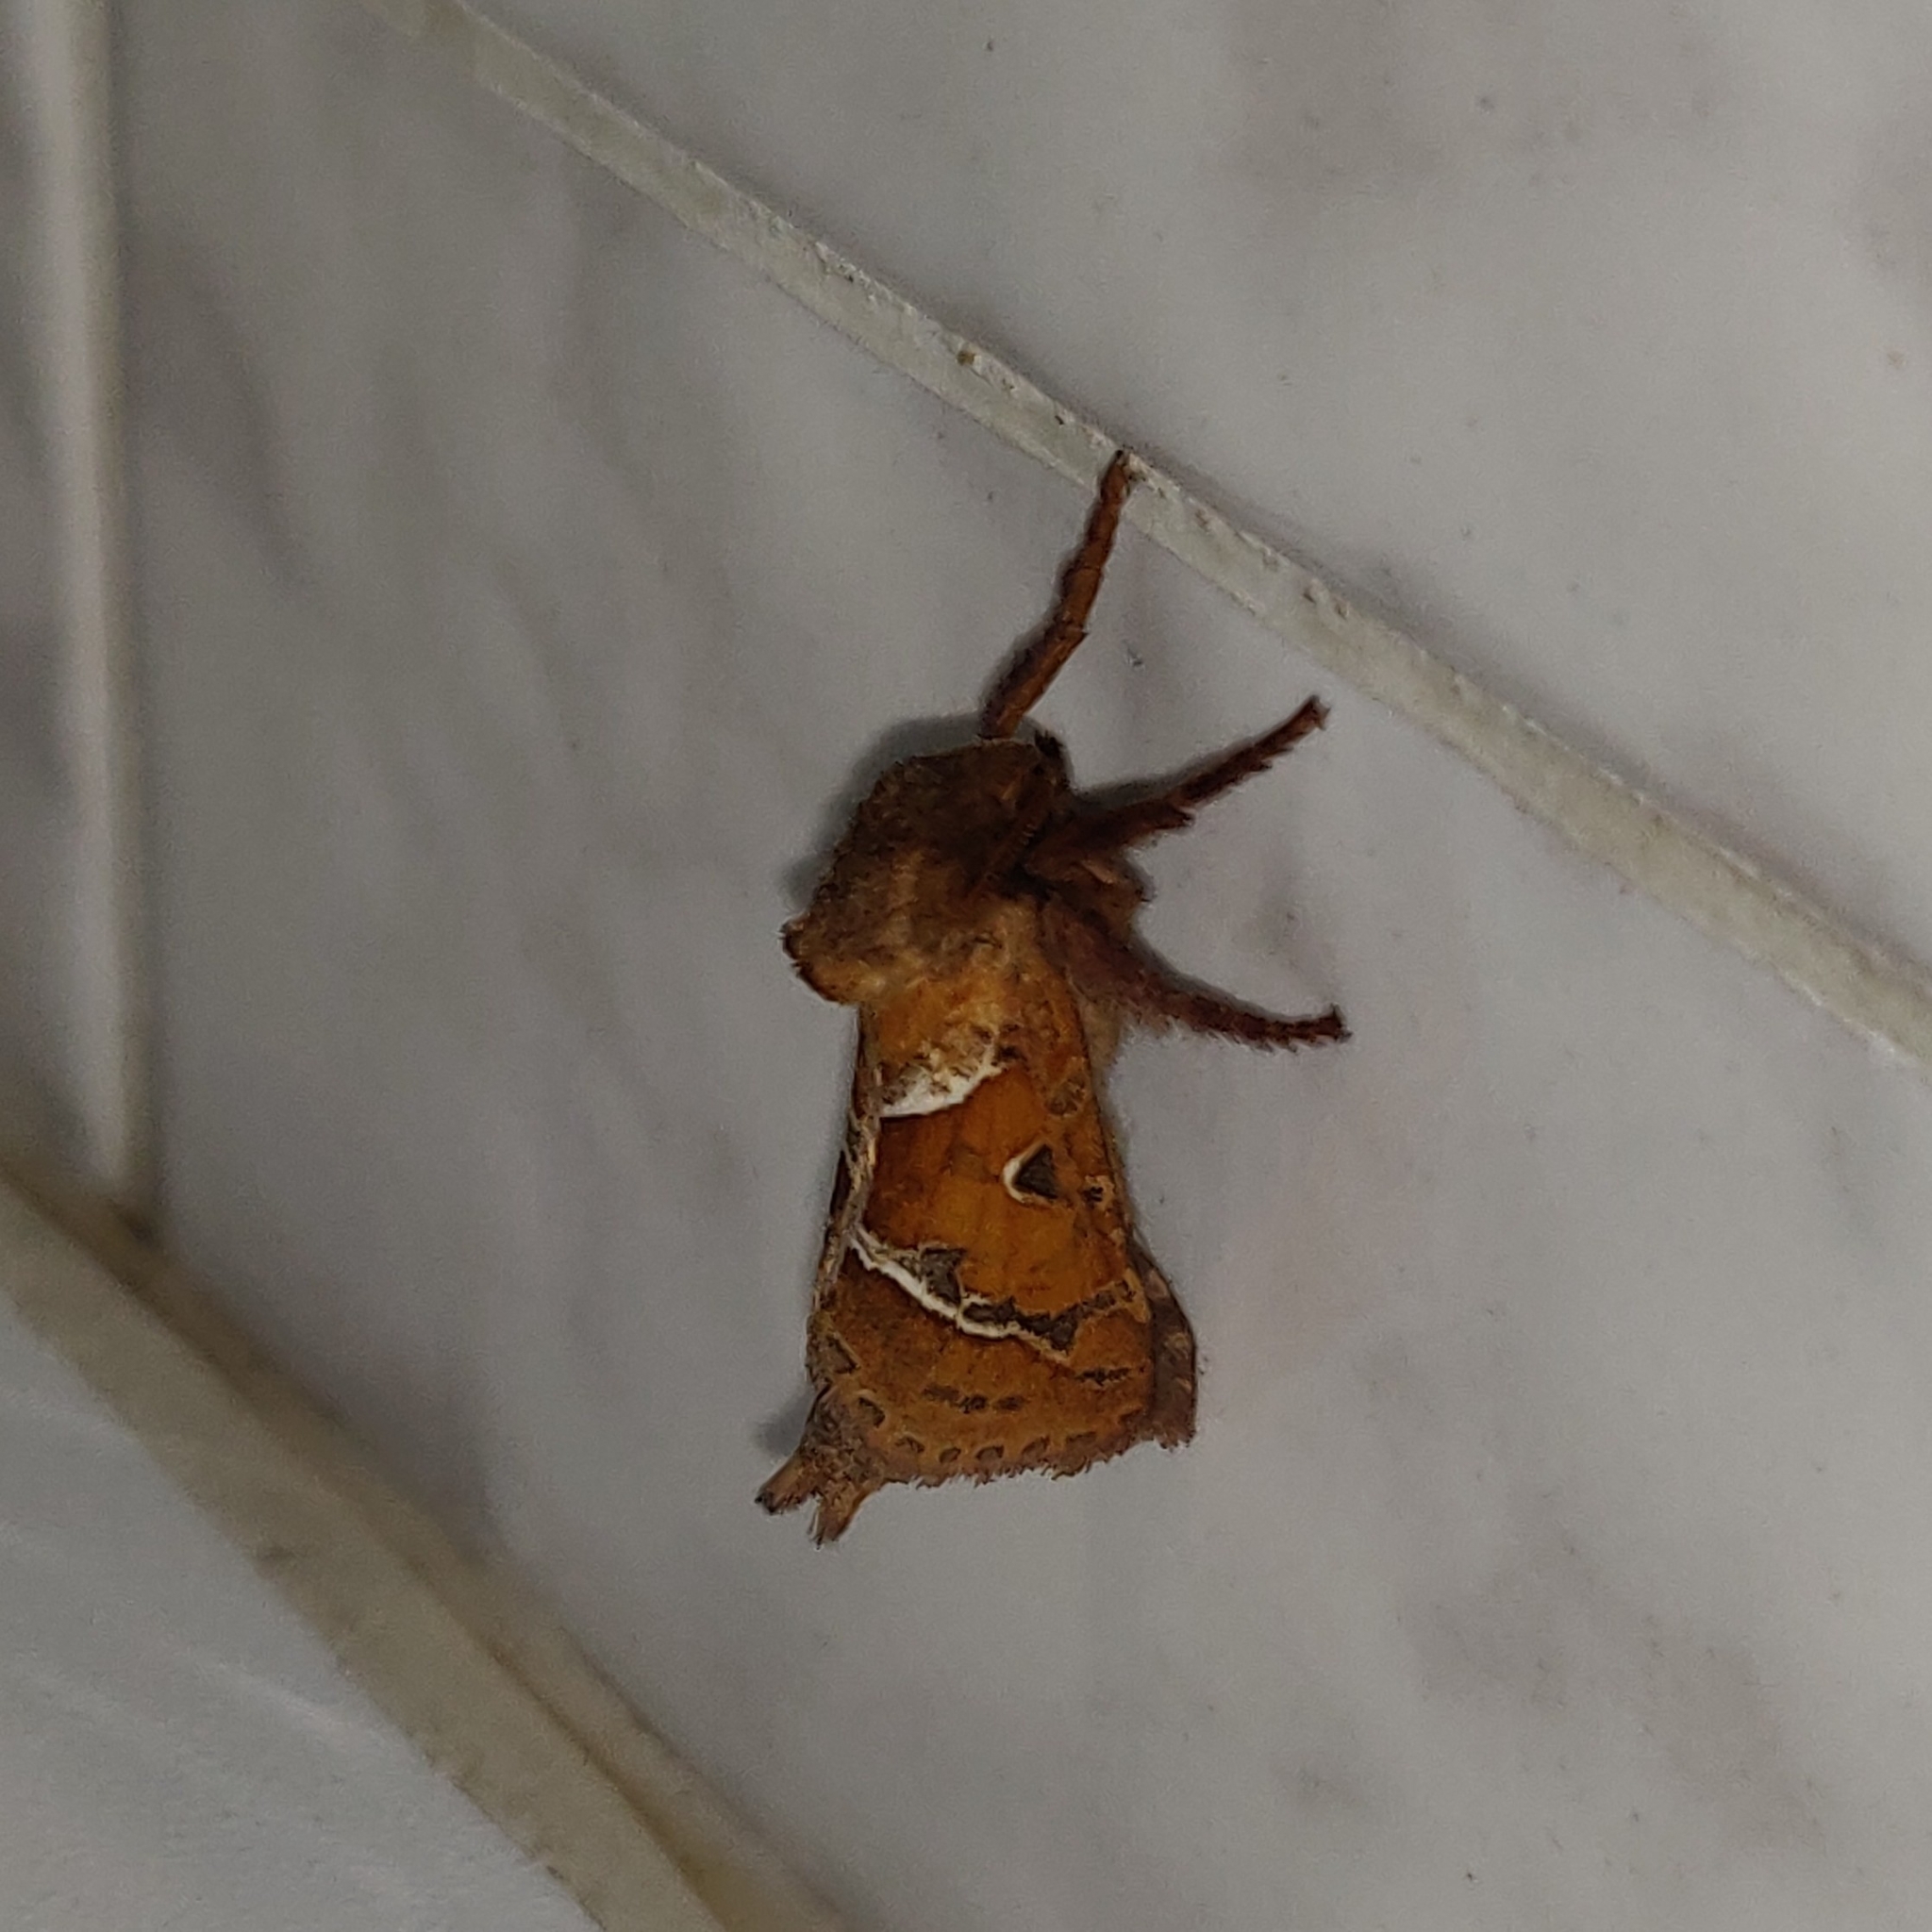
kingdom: Animalia
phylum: Arthropoda
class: Insecta
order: Lepidoptera
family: Hepialidae
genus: Triodia
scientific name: Triodia sylvina
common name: Orange swift
